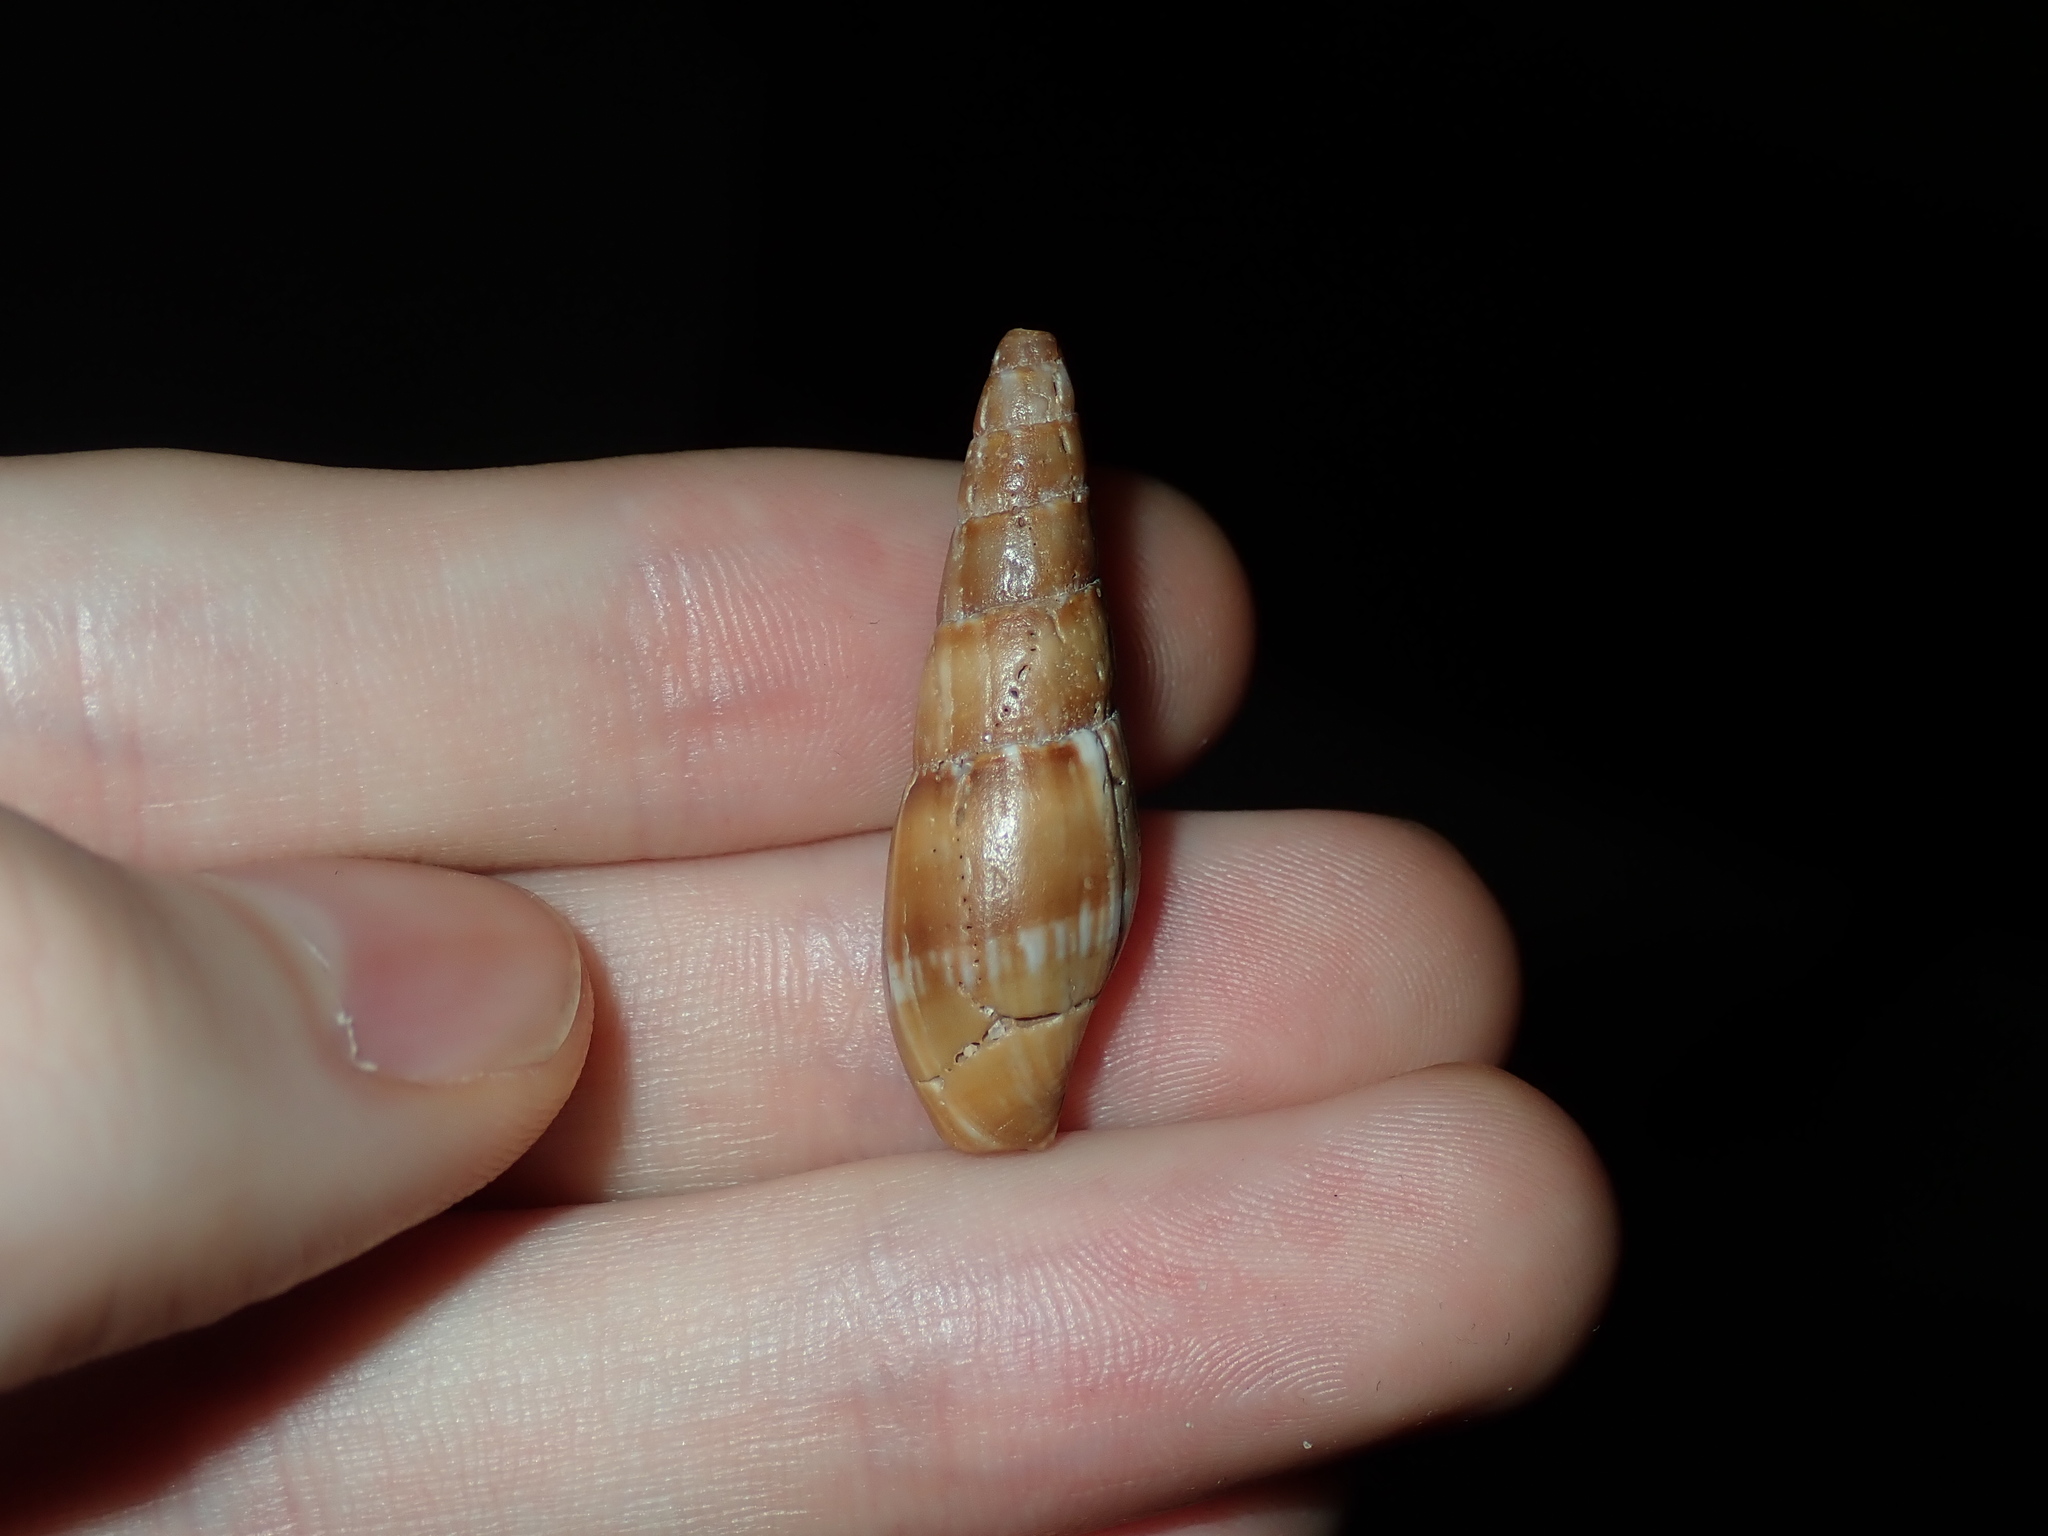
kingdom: Animalia
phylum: Mollusca
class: Gastropoda
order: Neogastropoda
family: Mitridae
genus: Isara
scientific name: Isara cookii
